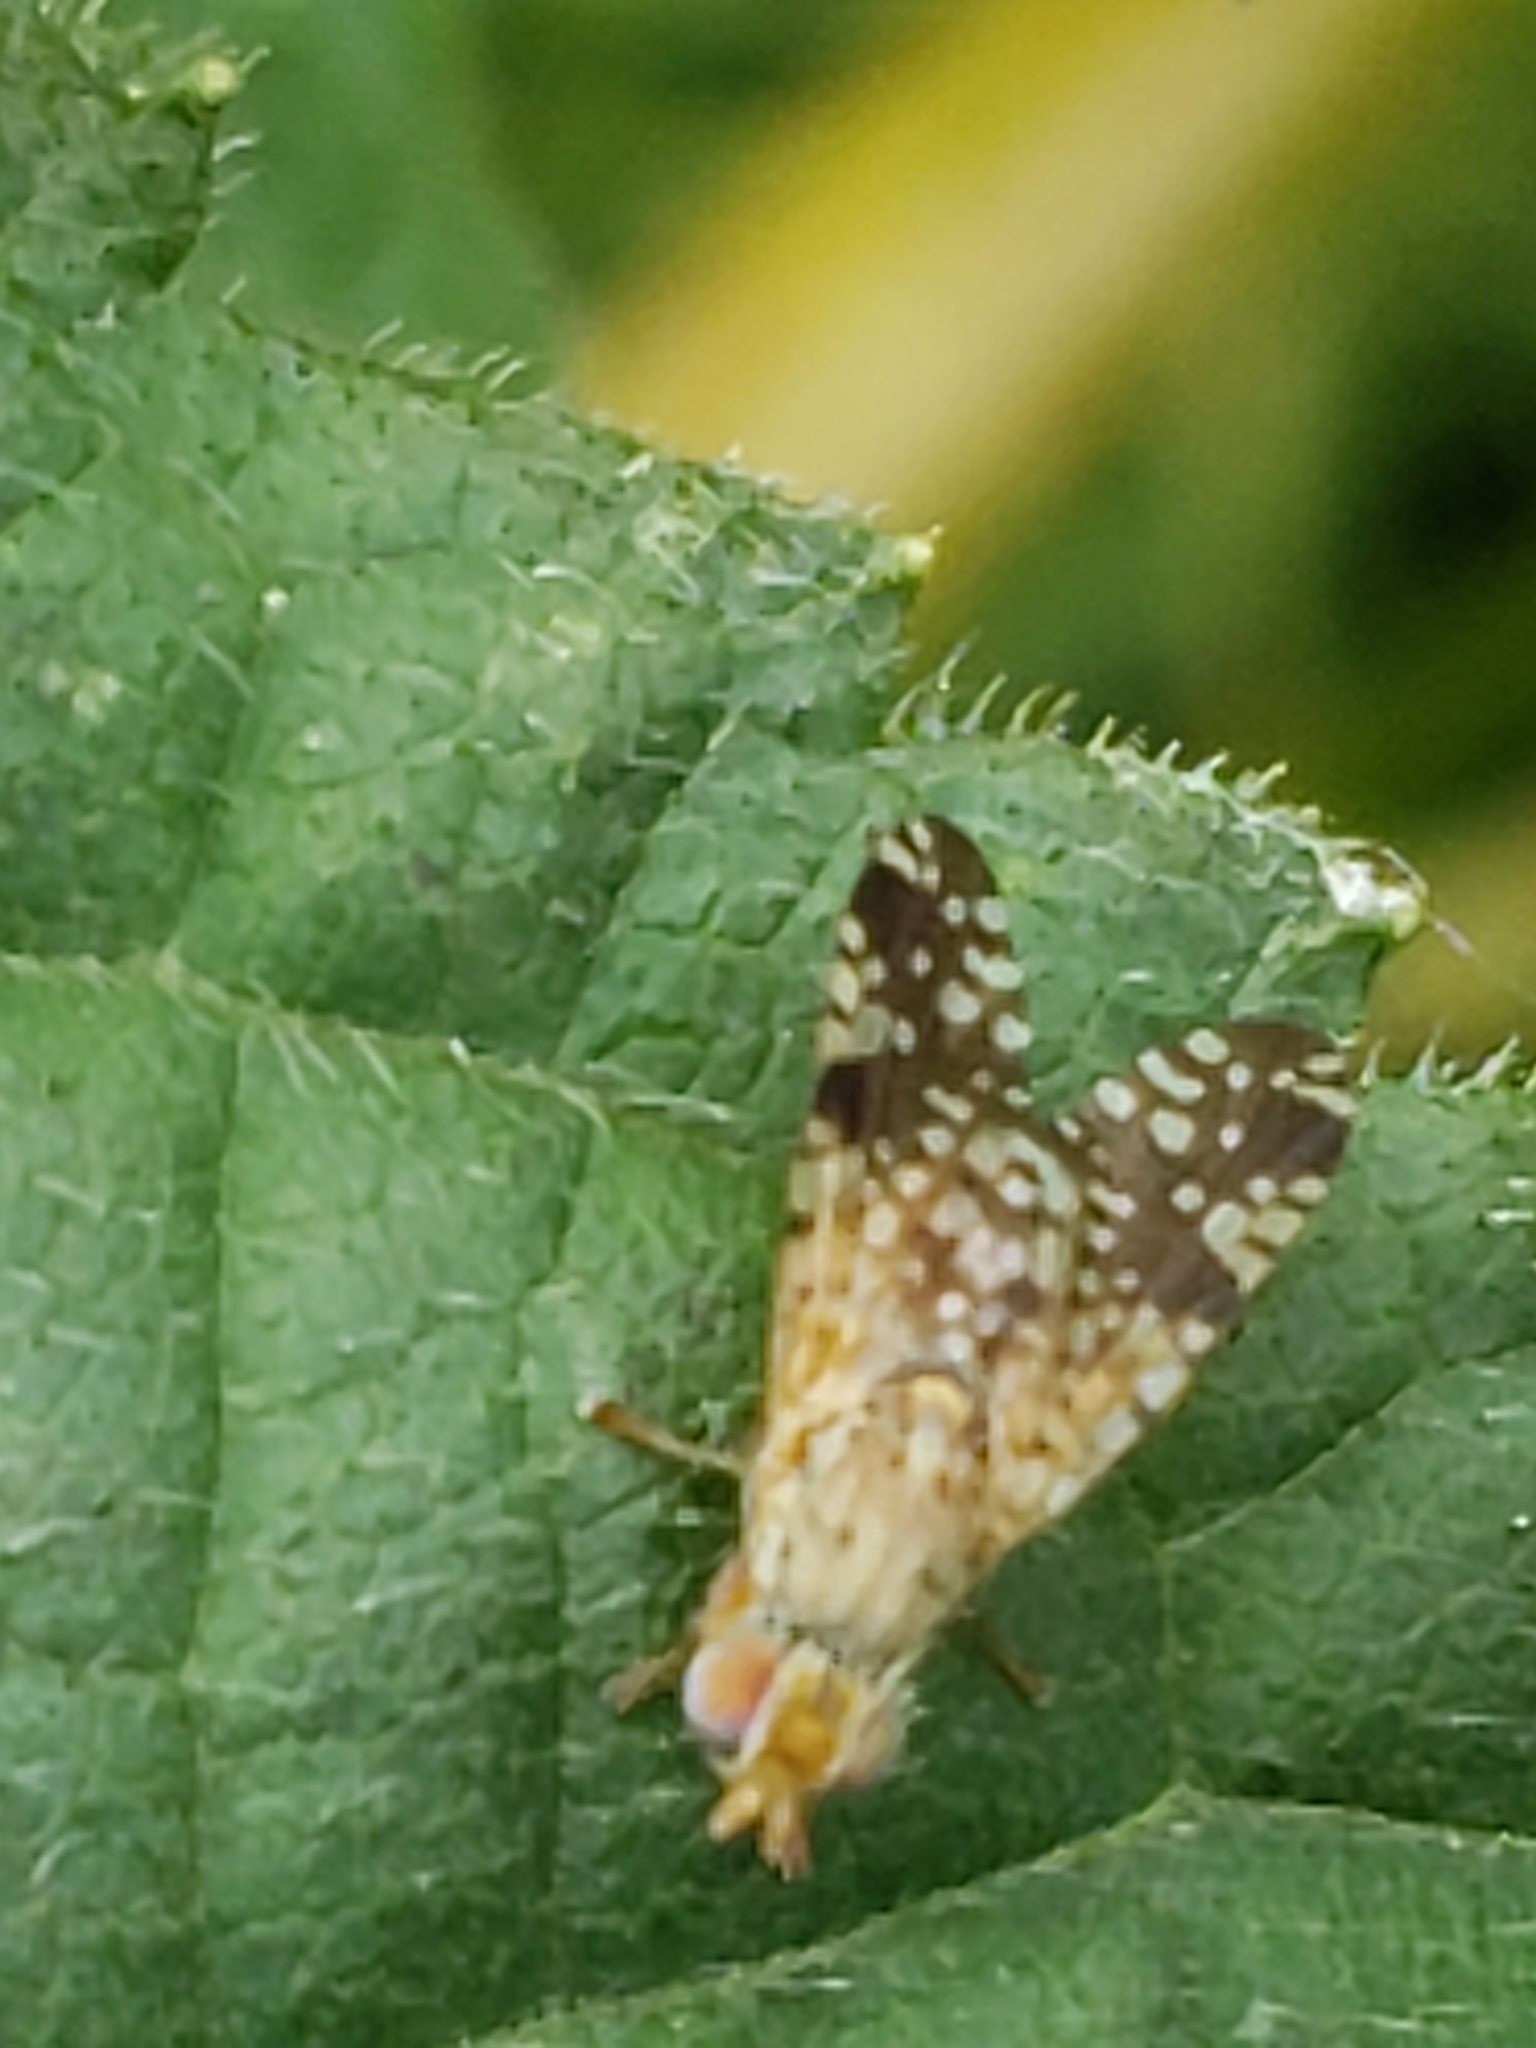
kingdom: Animalia
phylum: Arthropoda
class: Insecta
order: Diptera
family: Tephritidae
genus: Neotephritis
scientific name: Neotephritis finalis
